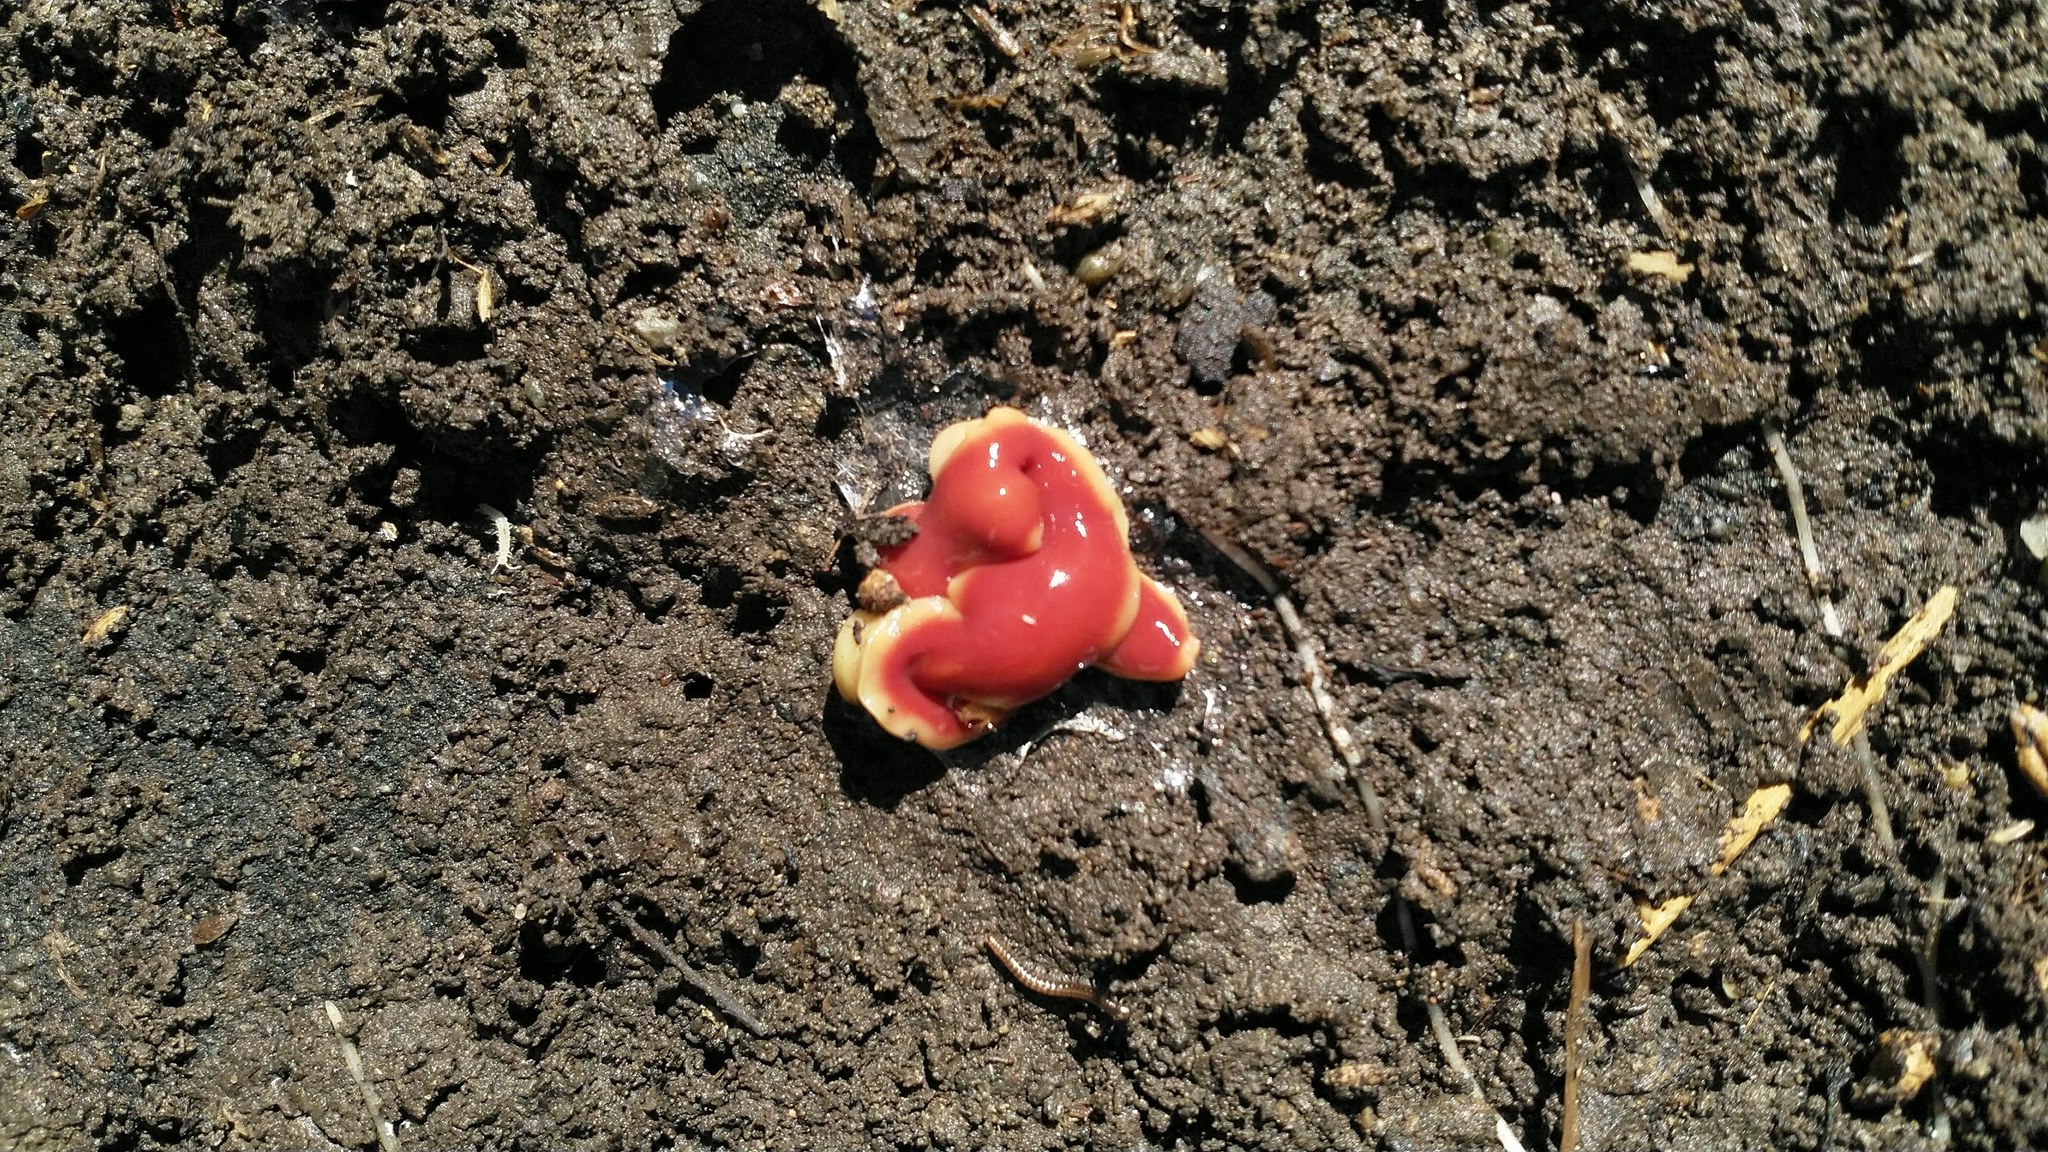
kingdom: Animalia
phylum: Platyhelminthes
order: Tricladida
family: Geoplanidae
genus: Arthurdendyus
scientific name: Arthurdendyus testaceus
